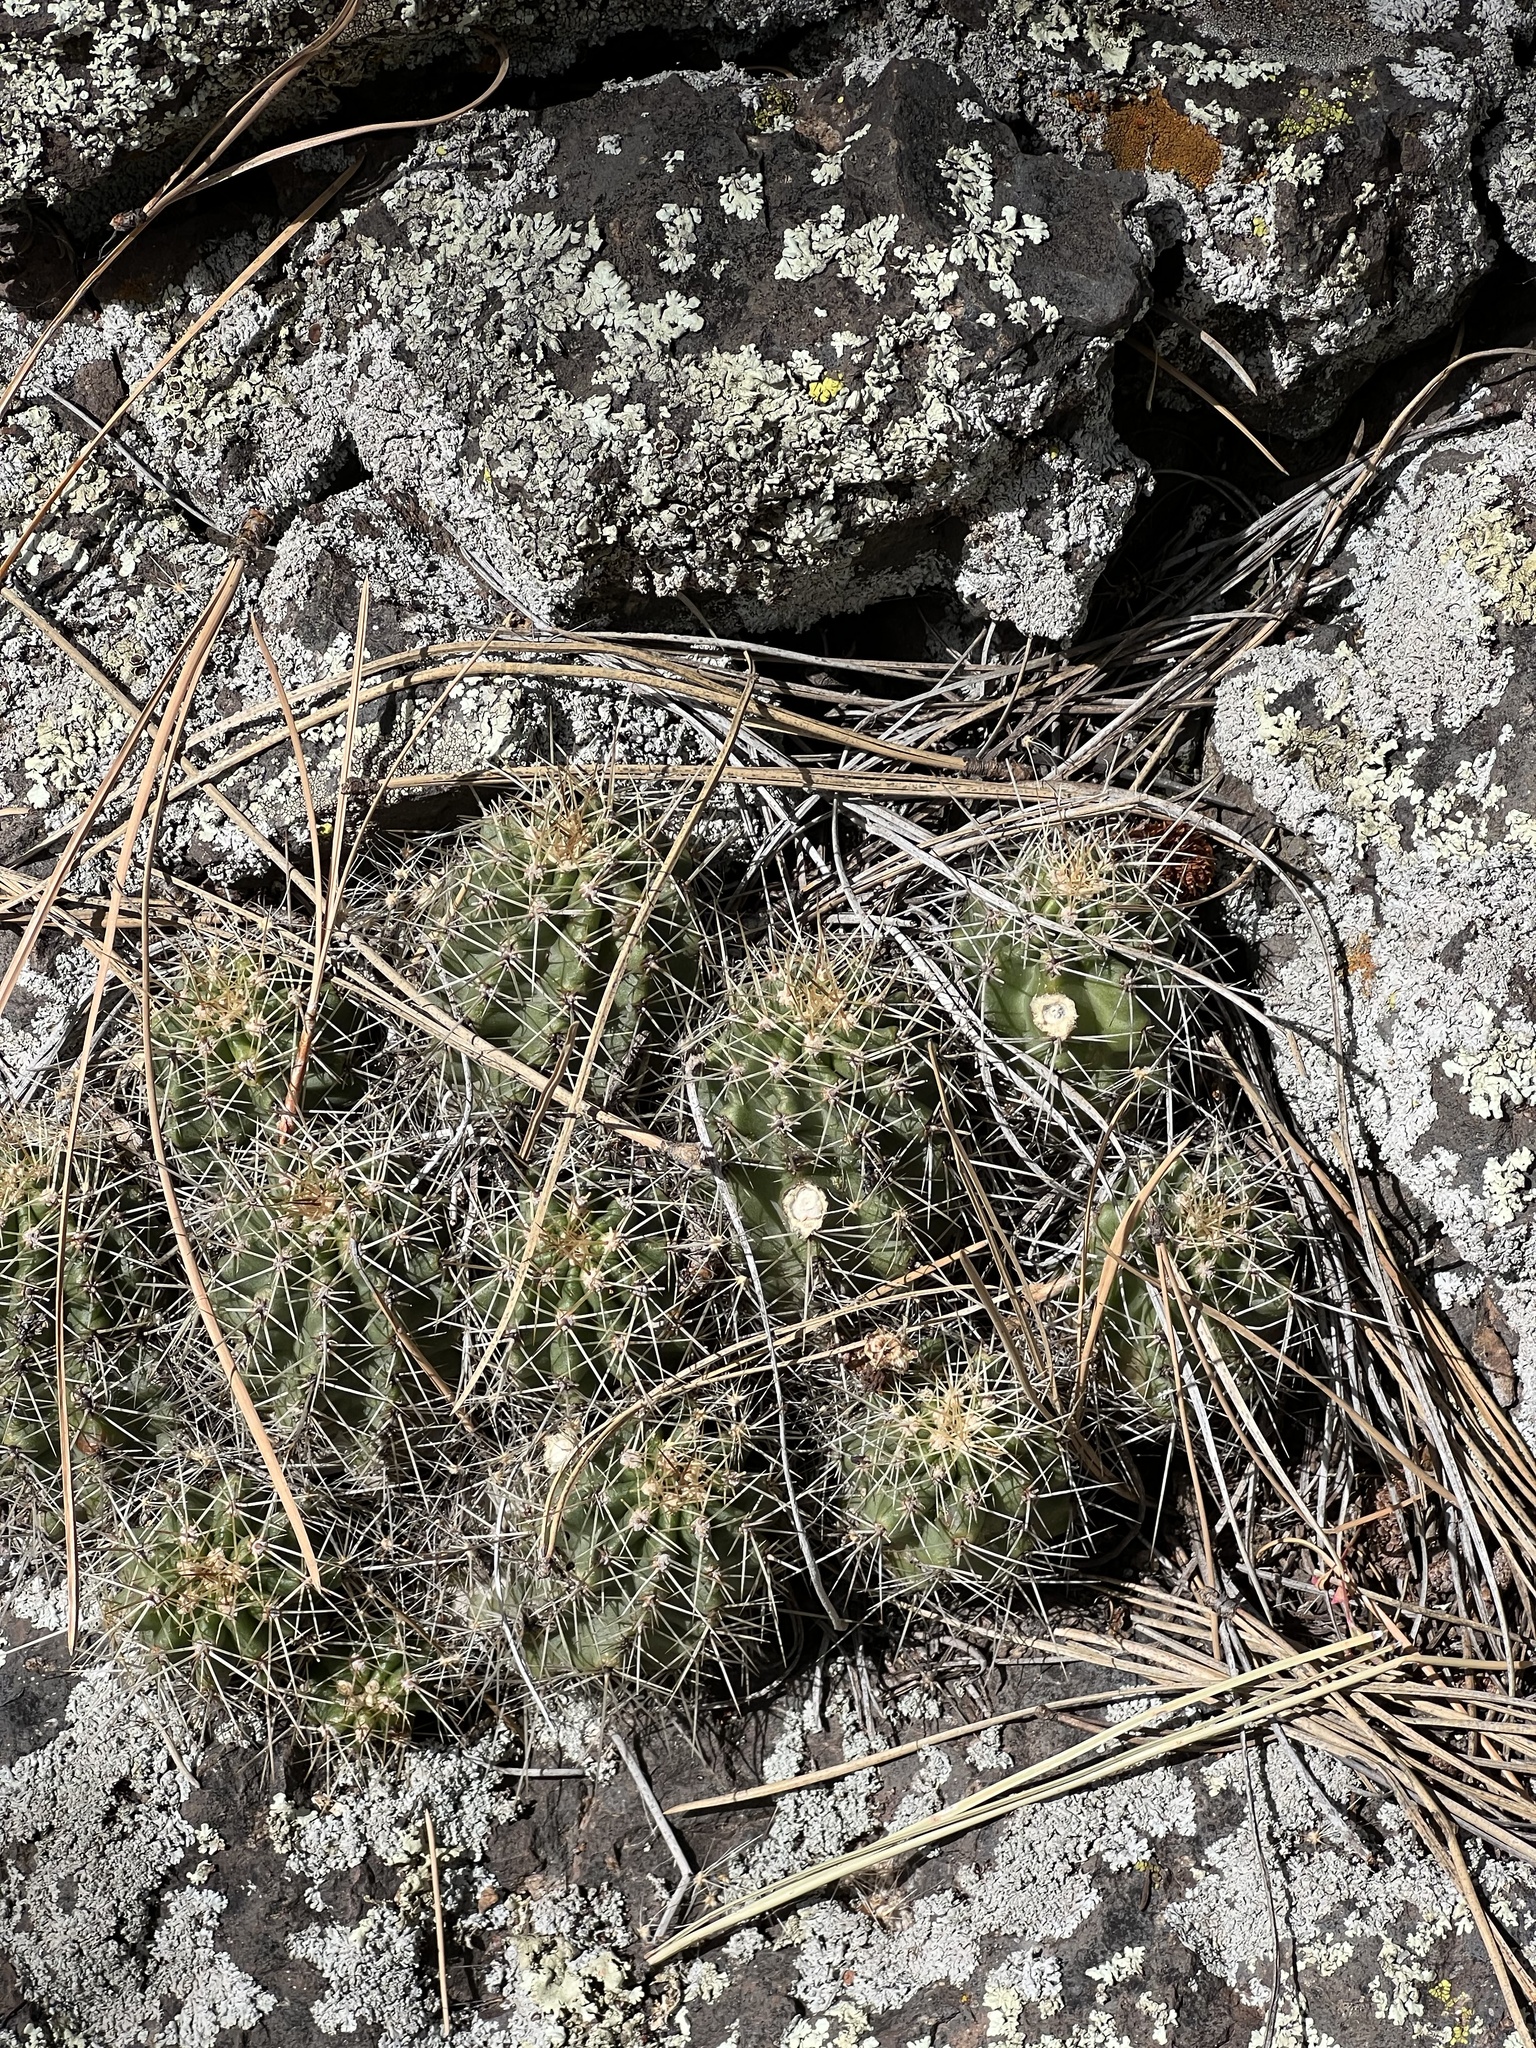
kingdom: Plantae
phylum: Tracheophyta
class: Magnoliopsida
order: Caryophyllales
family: Cactaceae
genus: Echinocereus
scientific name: Echinocereus bakeri
